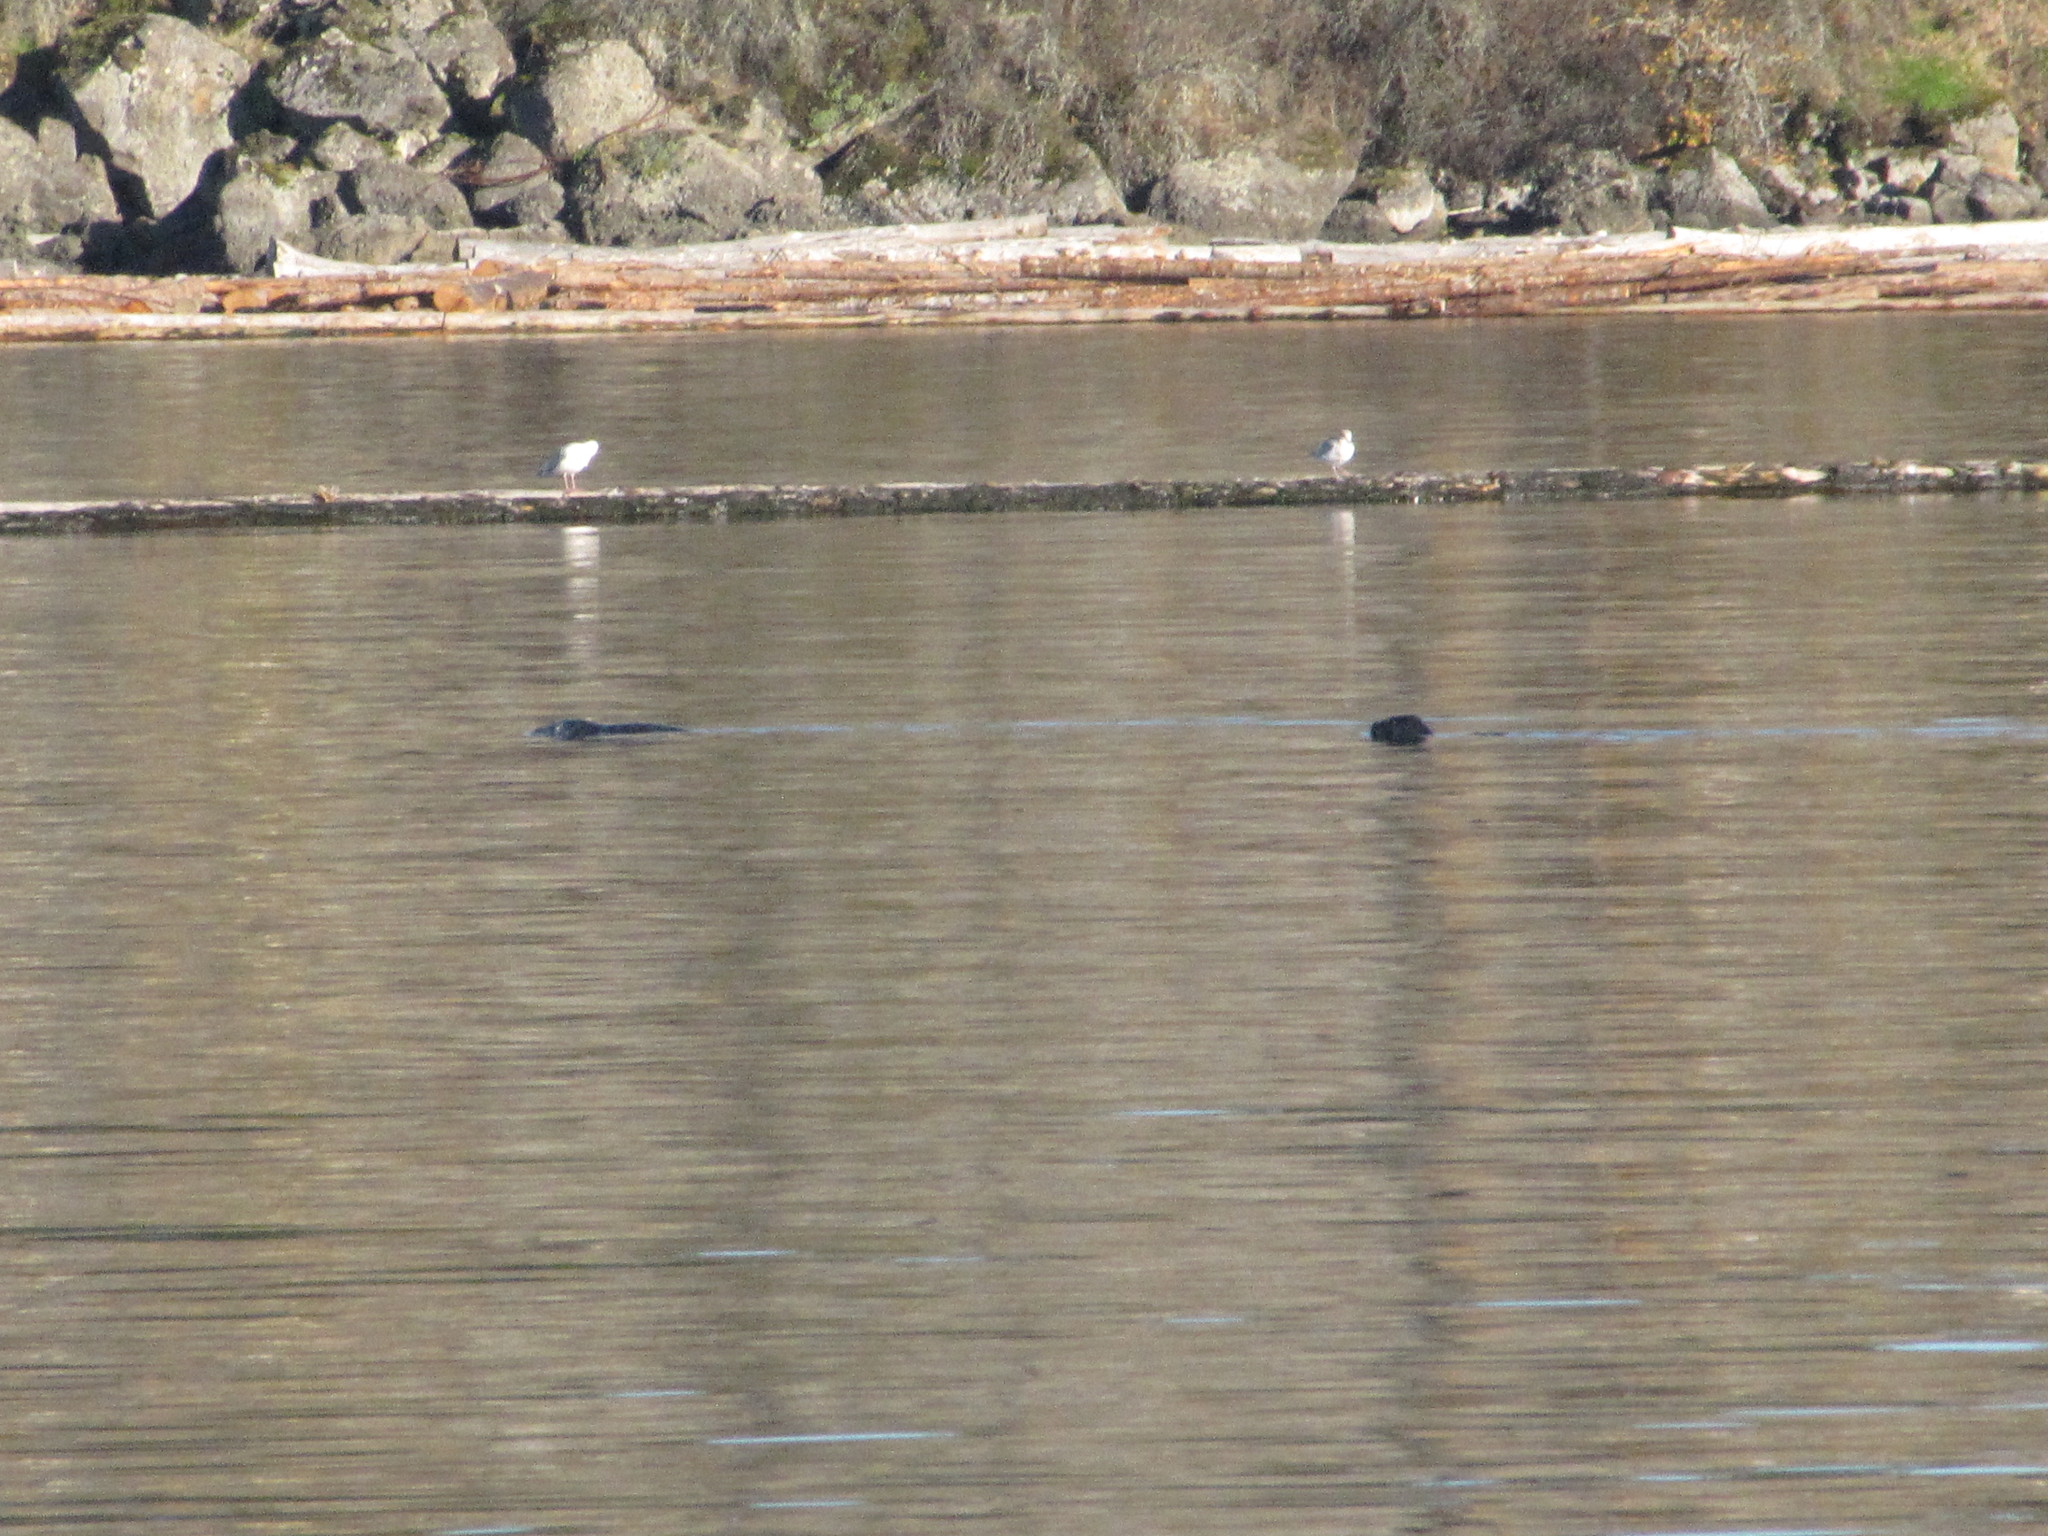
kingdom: Animalia
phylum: Chordata
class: Mammalia
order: Carnivora
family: Phocidae
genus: Phoca
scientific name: Phoca vitulina
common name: Harbor seal
